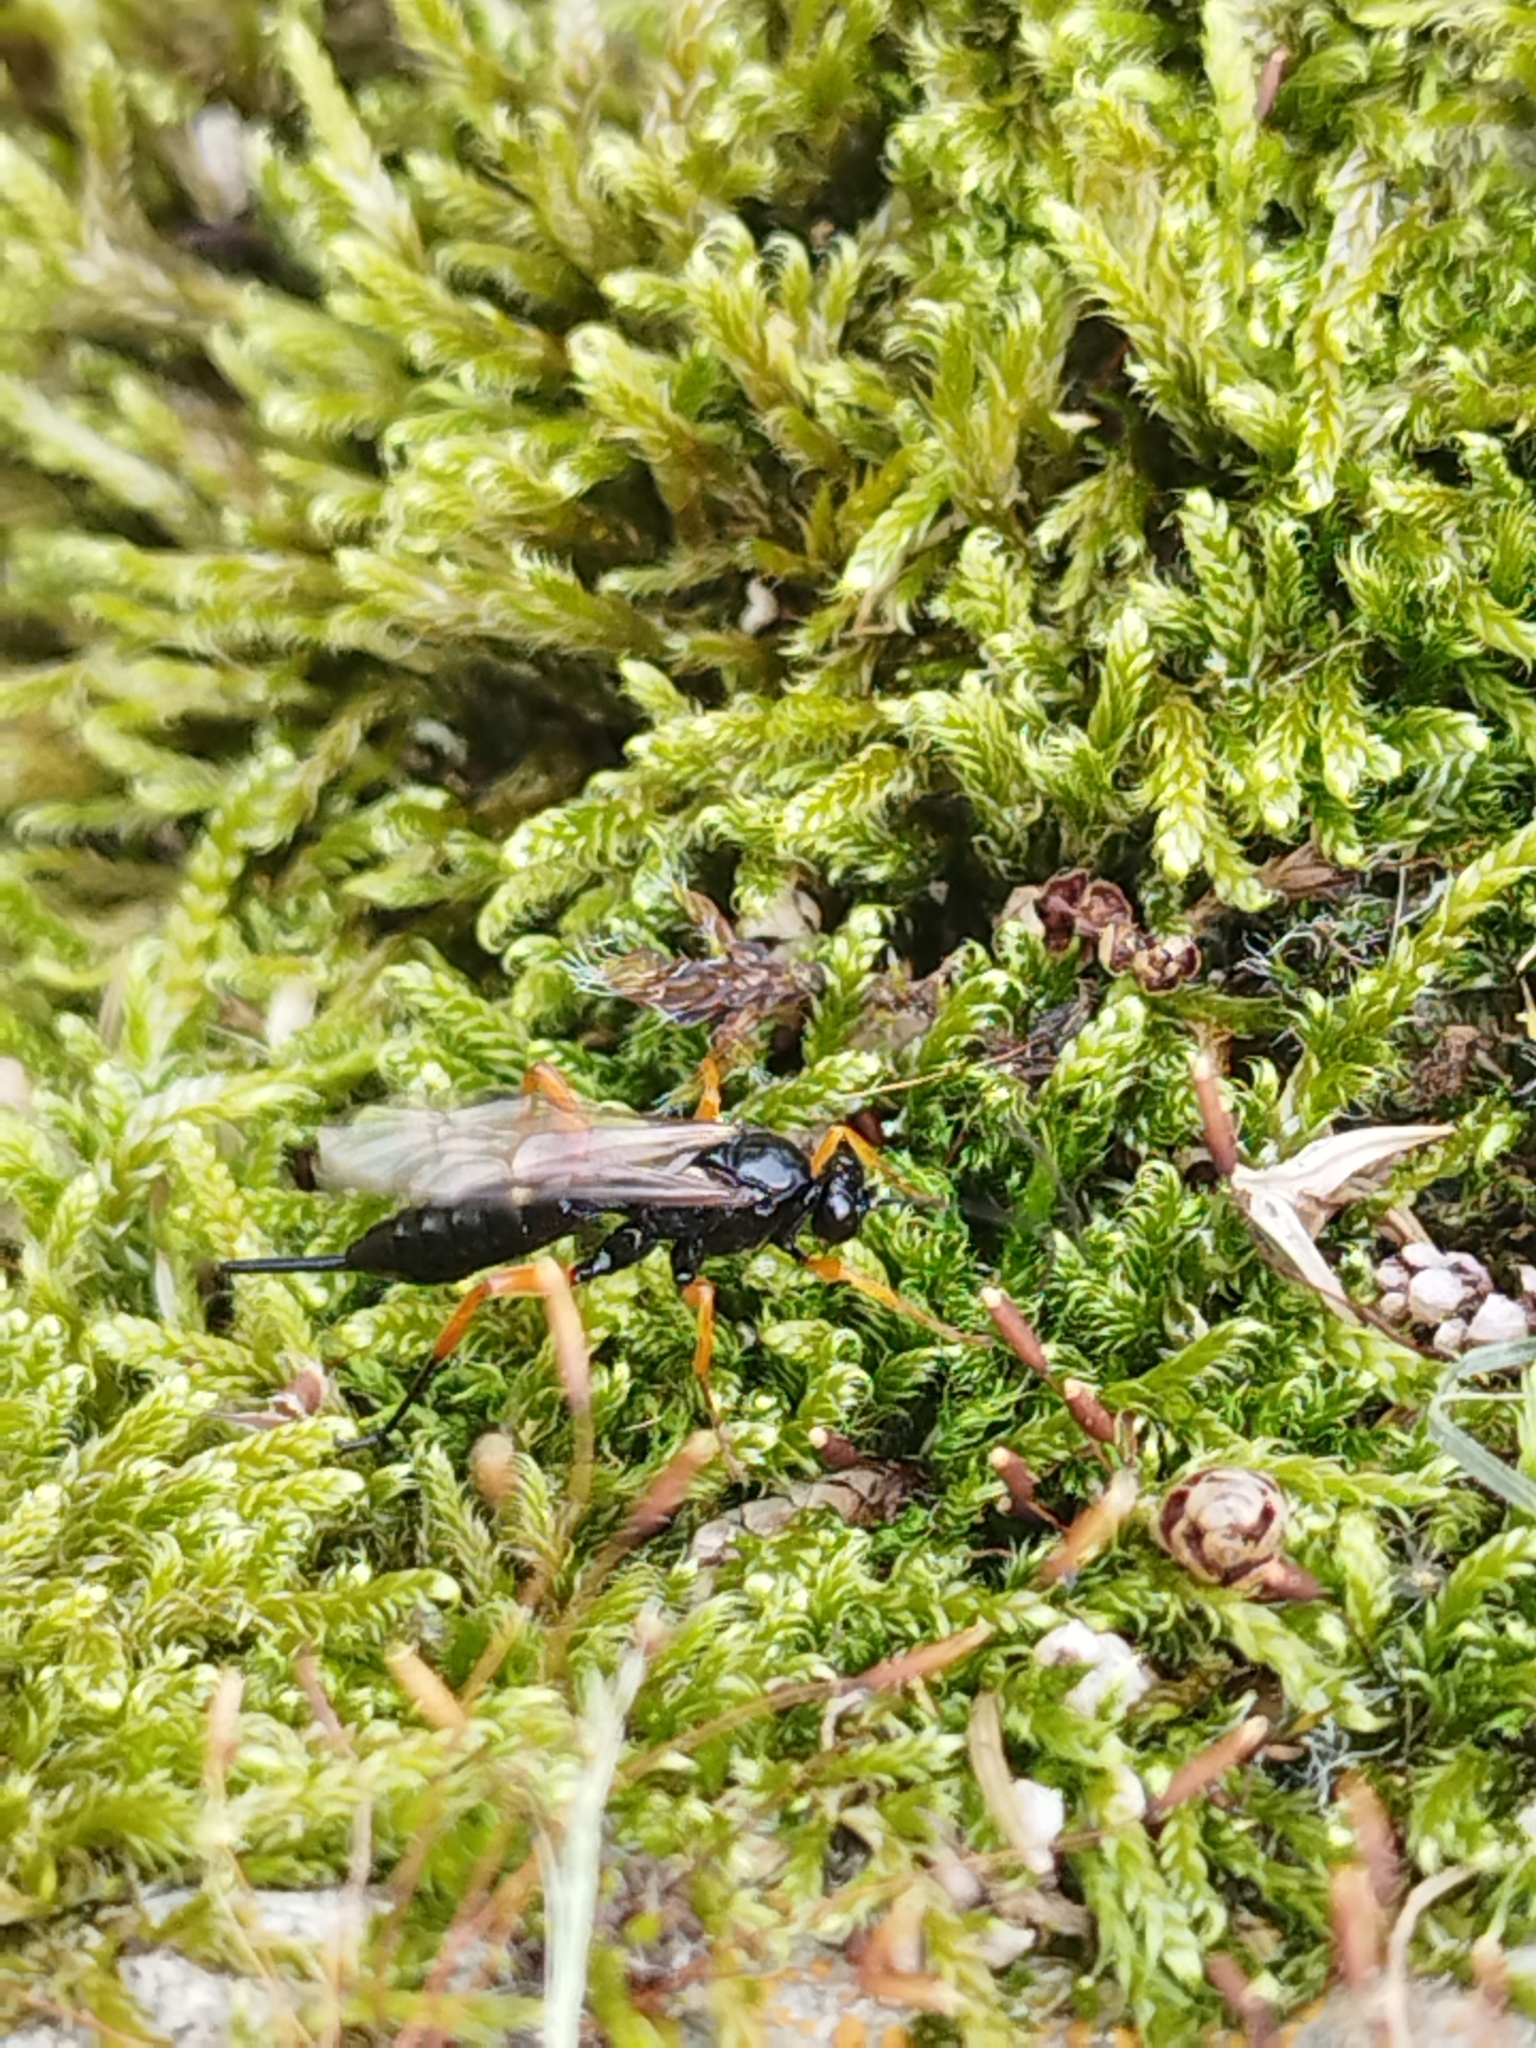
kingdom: Animalia
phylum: Arthropoda
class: Insecta
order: Hymenoptera
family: Ichneumonidae
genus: Pimpla
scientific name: Pimpla rufipes
